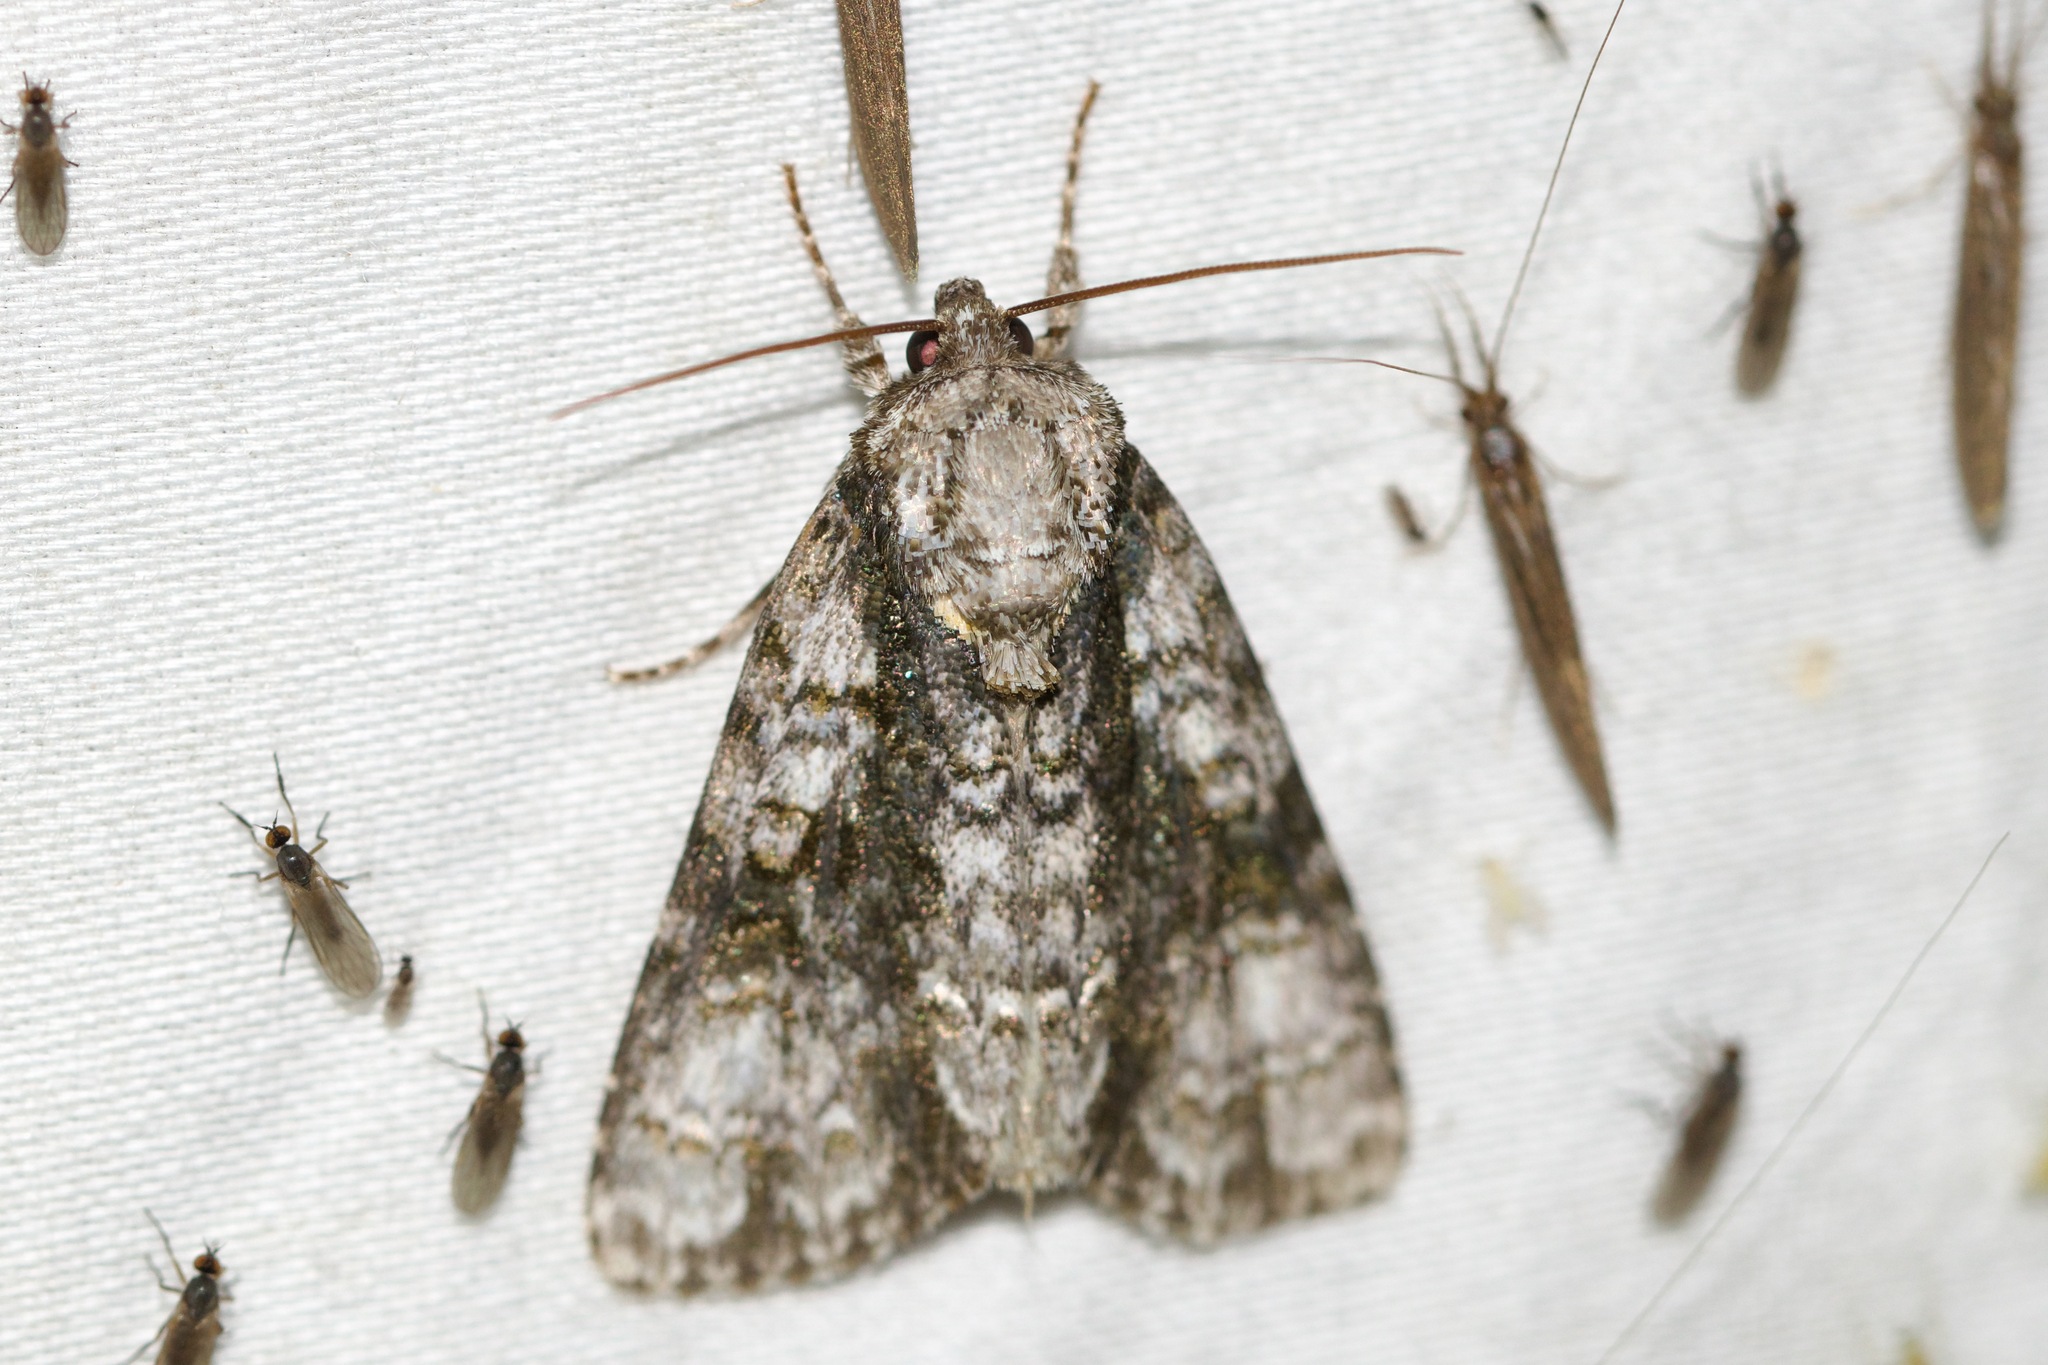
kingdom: Animalia
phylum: Arthropoda
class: Insecta
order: Lepidoptera
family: Noctuidae
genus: Acronicta
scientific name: Acronicta superans
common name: Splendid dagger
